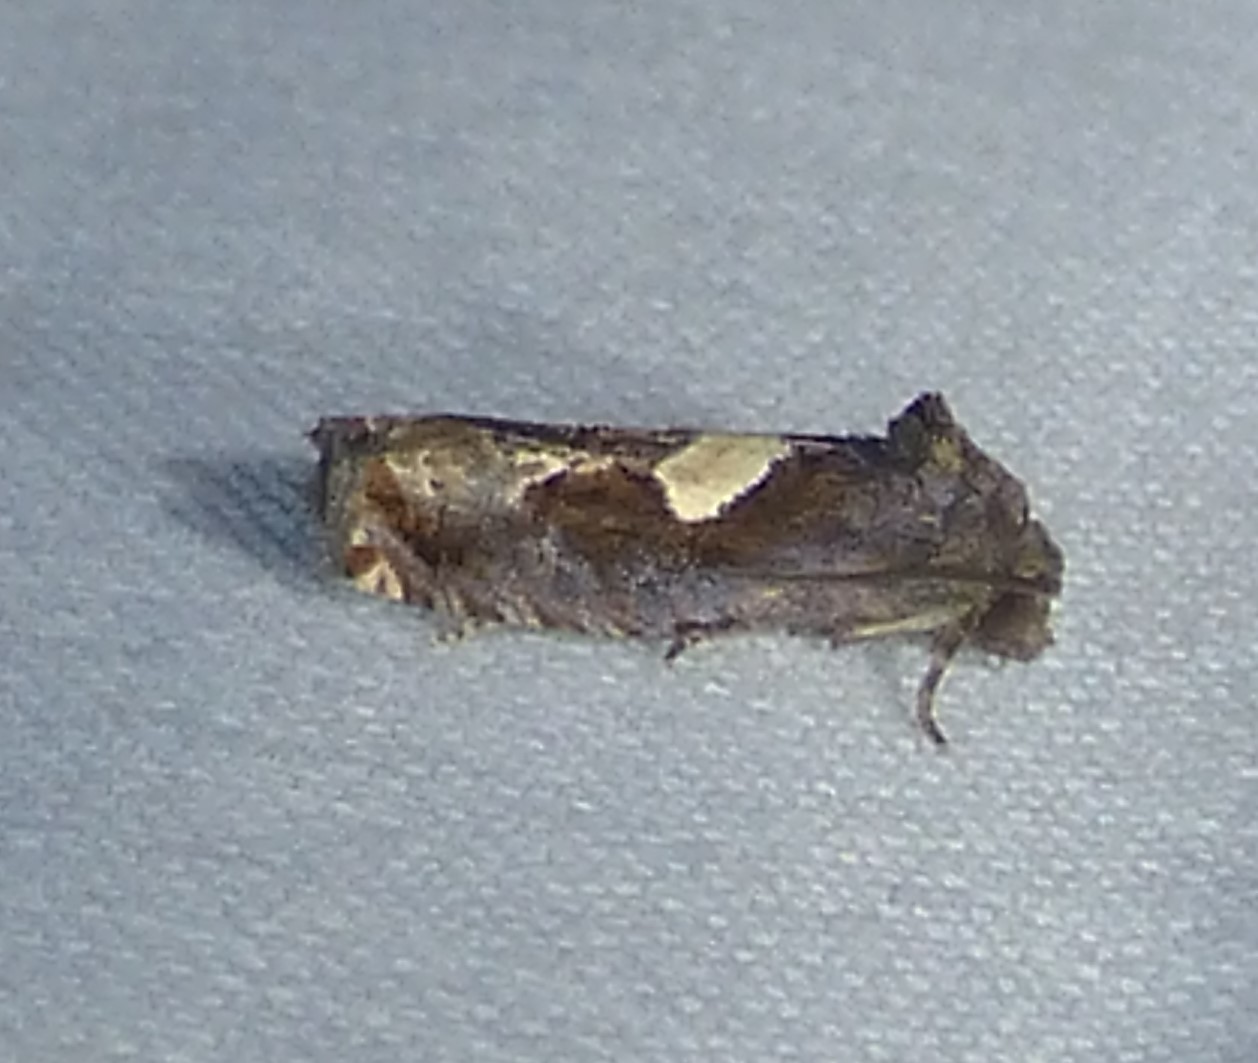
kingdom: Animalia
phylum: Arthropoda
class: Insecta
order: Lepidoptera
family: Tortricidae
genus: Epiblema
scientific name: Epiblema otiosana
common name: Bidens borer moth
